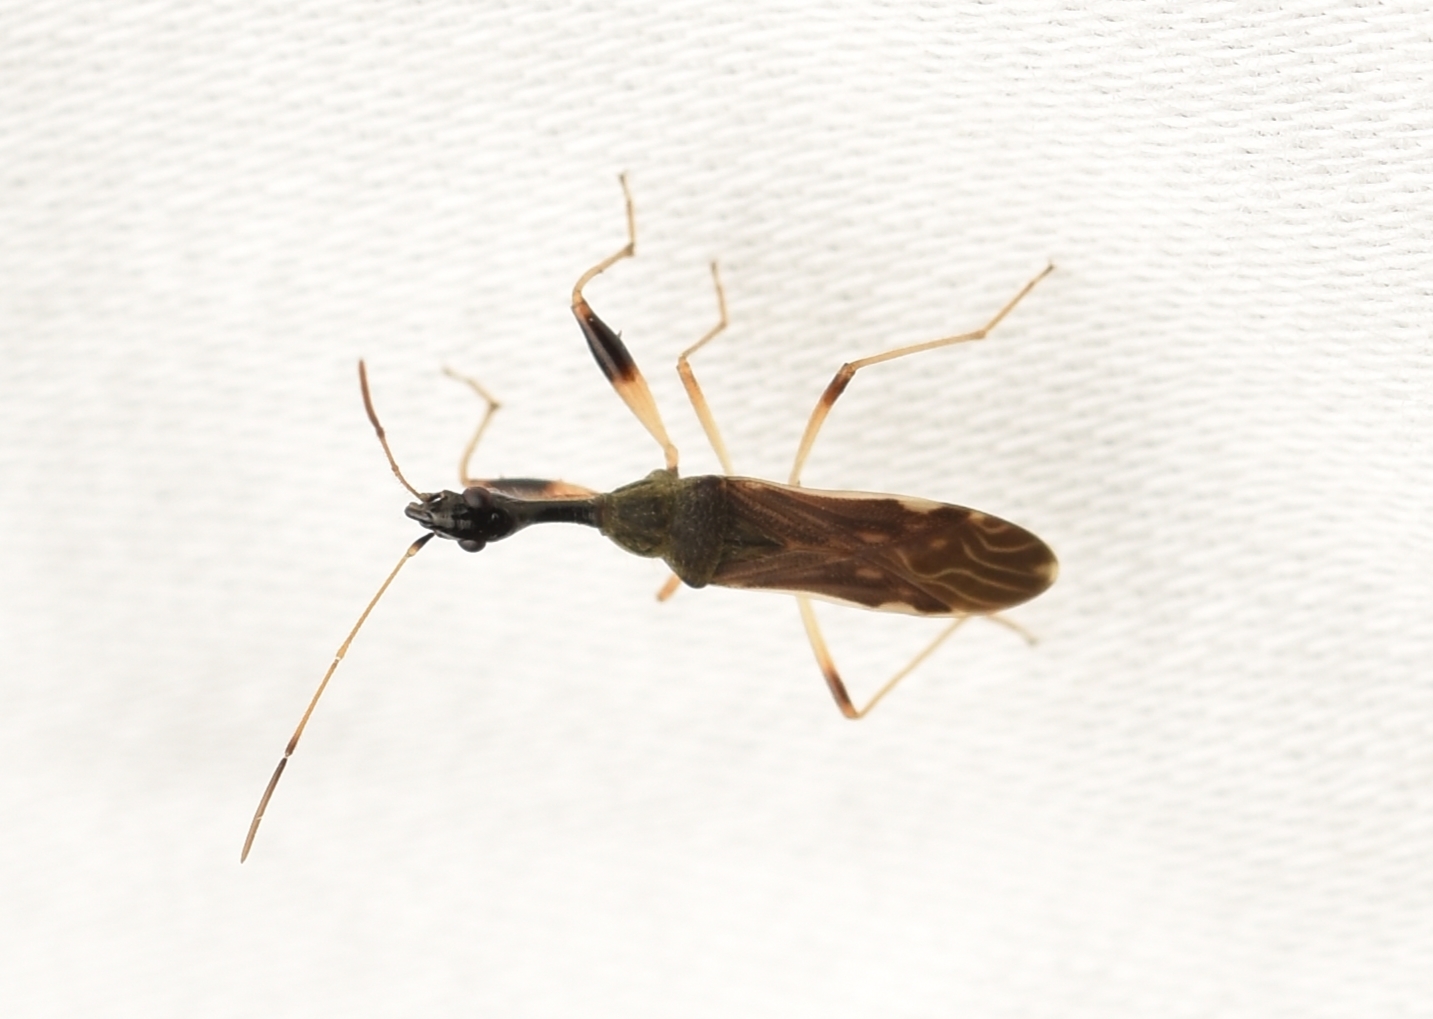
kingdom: Animalia
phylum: Arthropoda
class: Insecta
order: Hemiptera
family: Rhyparochromidae
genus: Myodocha
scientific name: Myodocha serripes
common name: Long-necked seed bug
